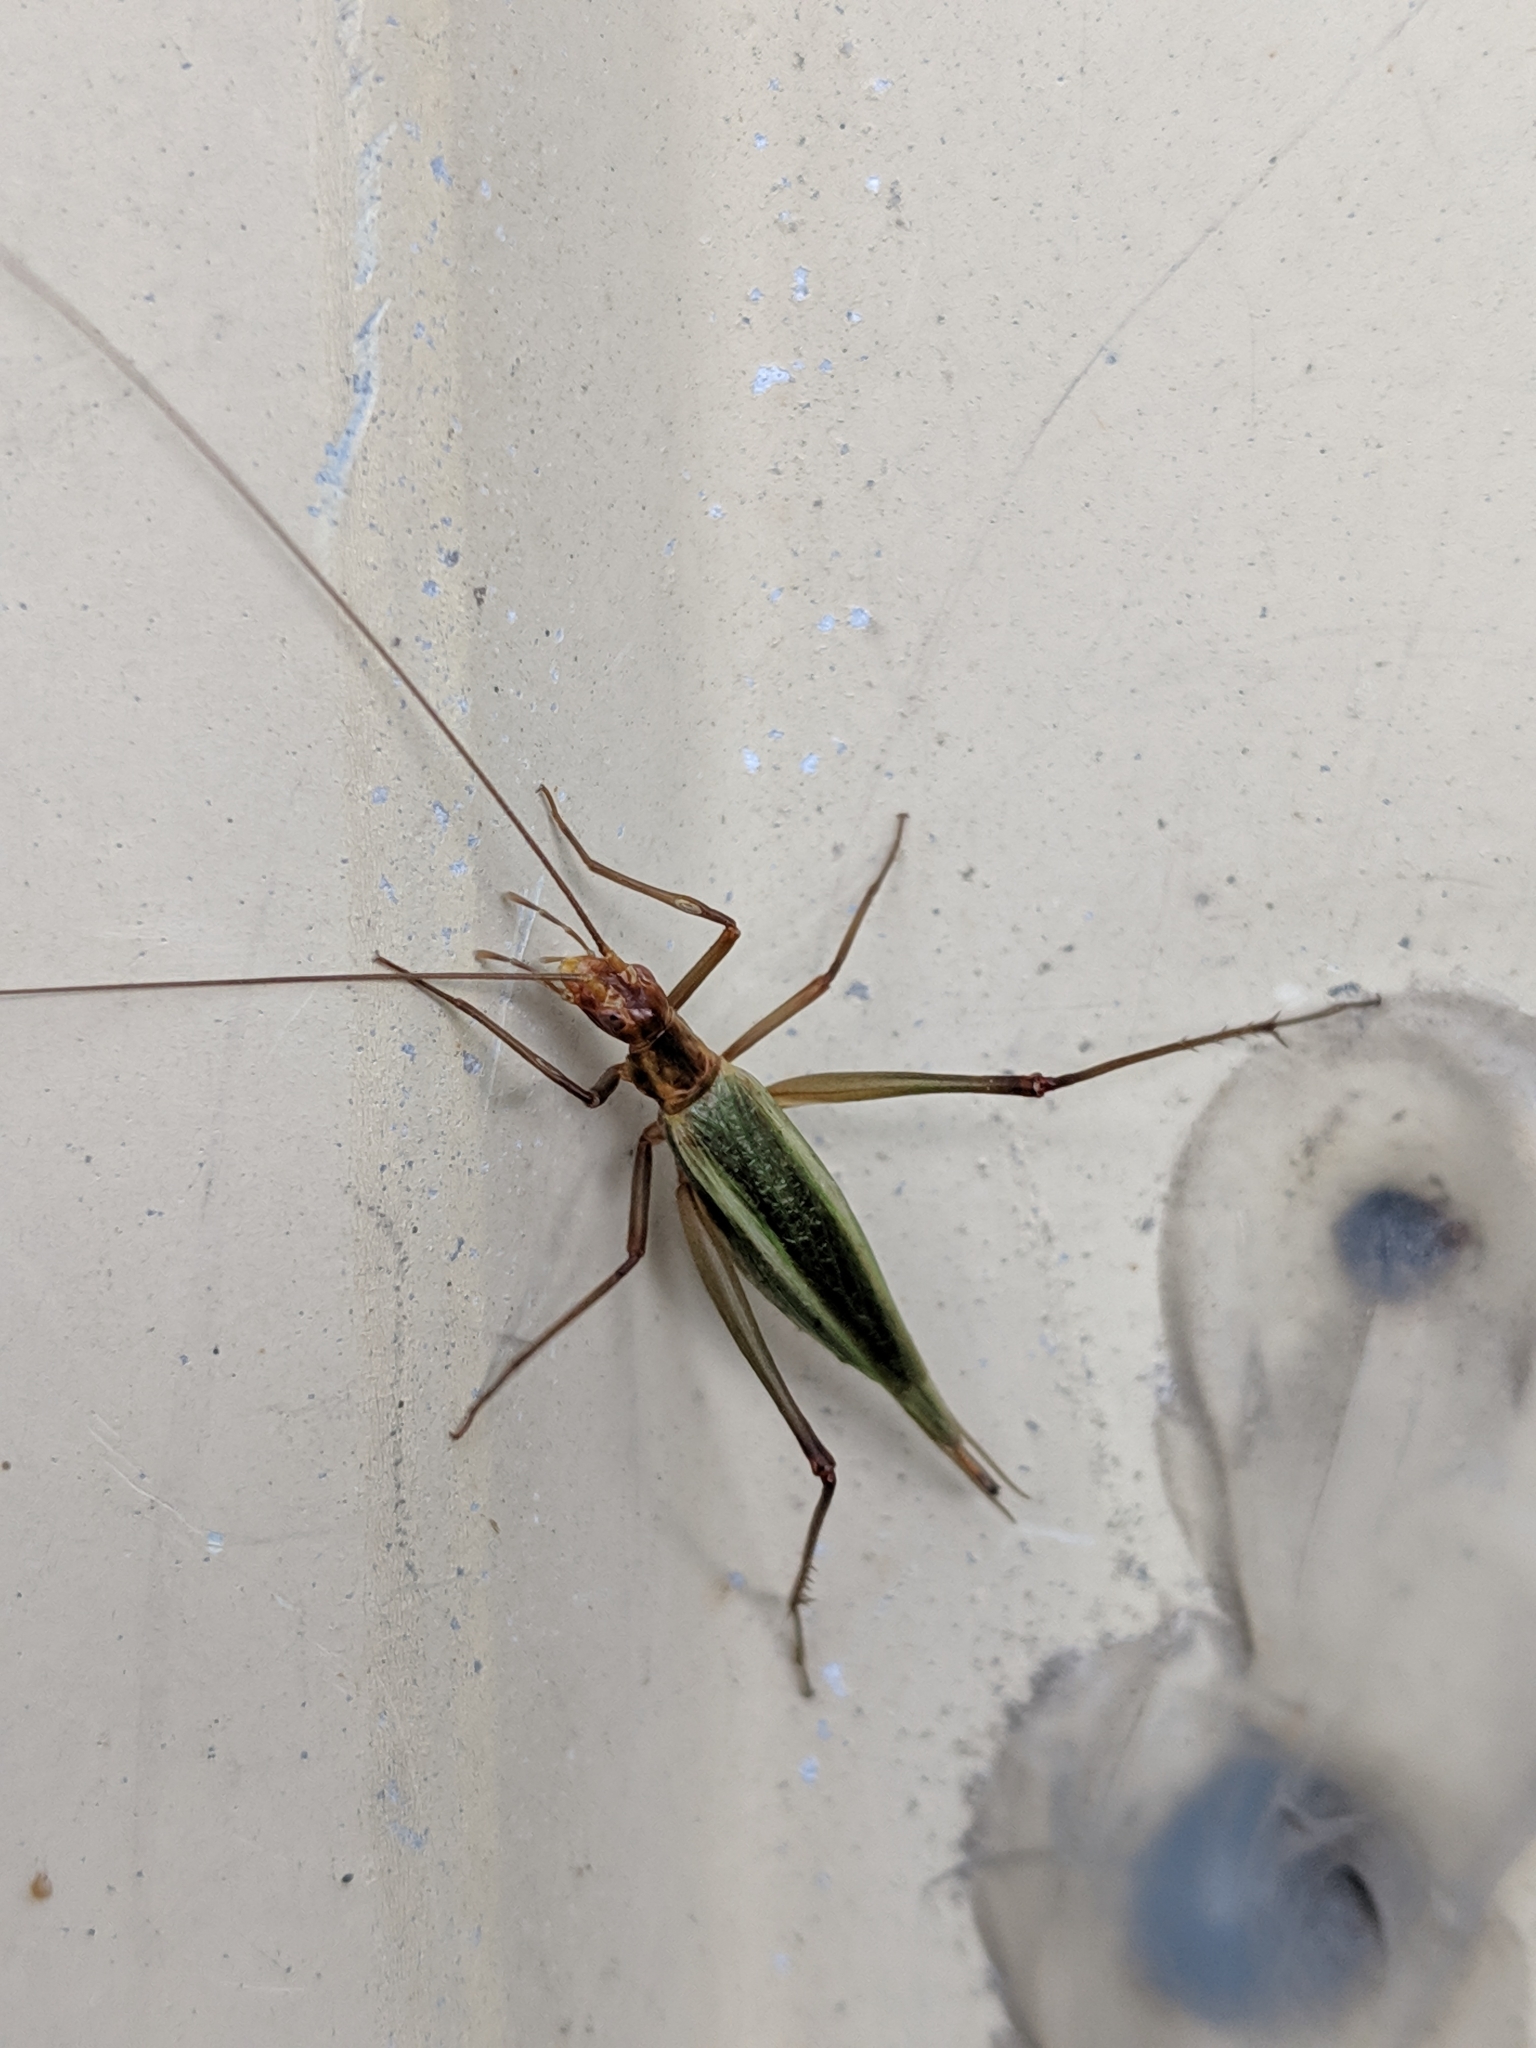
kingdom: Animalia
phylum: Arthropoda
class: Insecta
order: Orthoptera
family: Gryllidae
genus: Oecanthus
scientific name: Oecanthus pini
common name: Pine tree cricket
